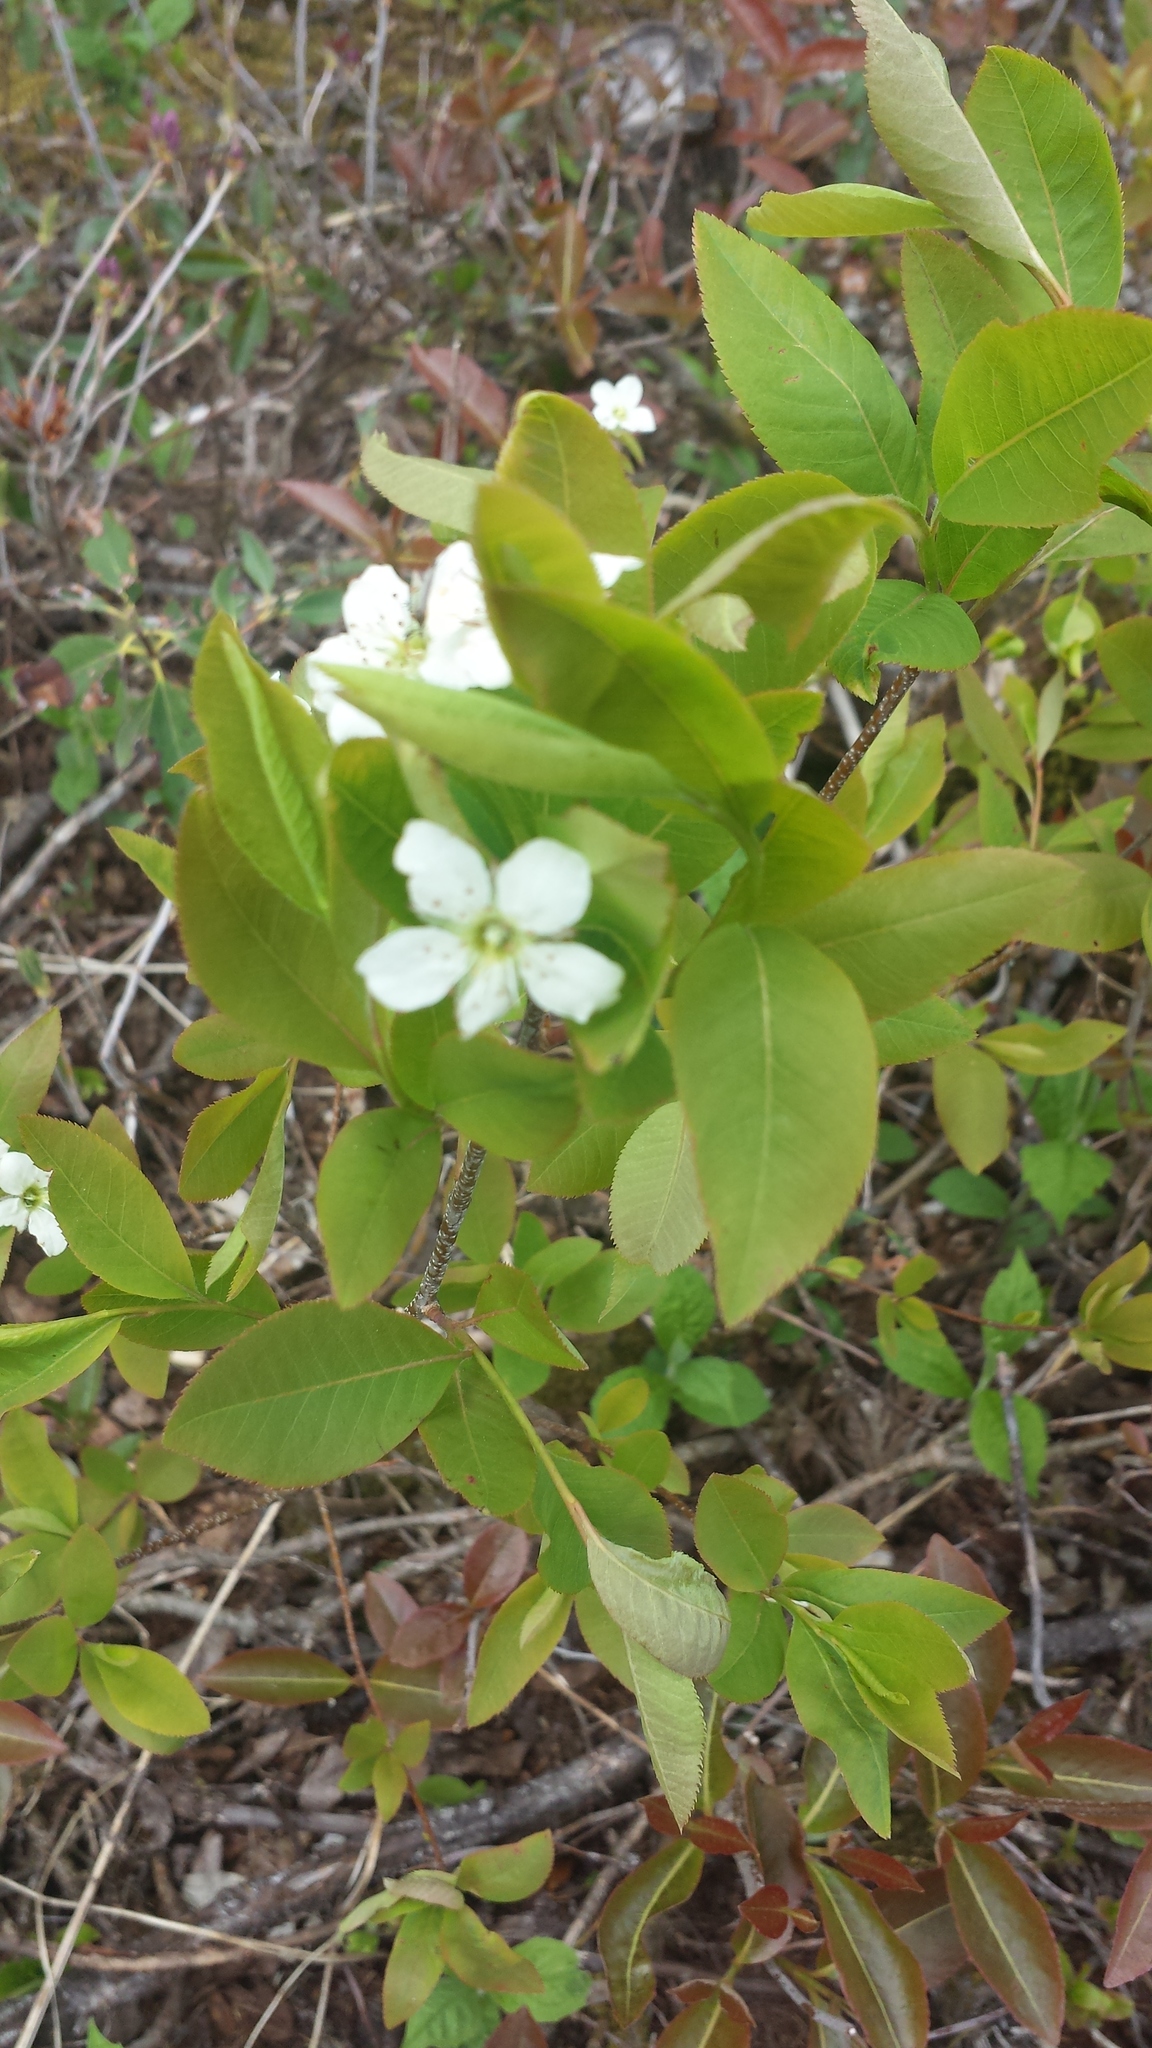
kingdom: Plantae
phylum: Tracheophyta
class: Magnoliopsida
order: Rosales
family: Rosaceae
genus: Amelanchier
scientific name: Amelanchier bartramiana
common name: Mountain serviceberry
